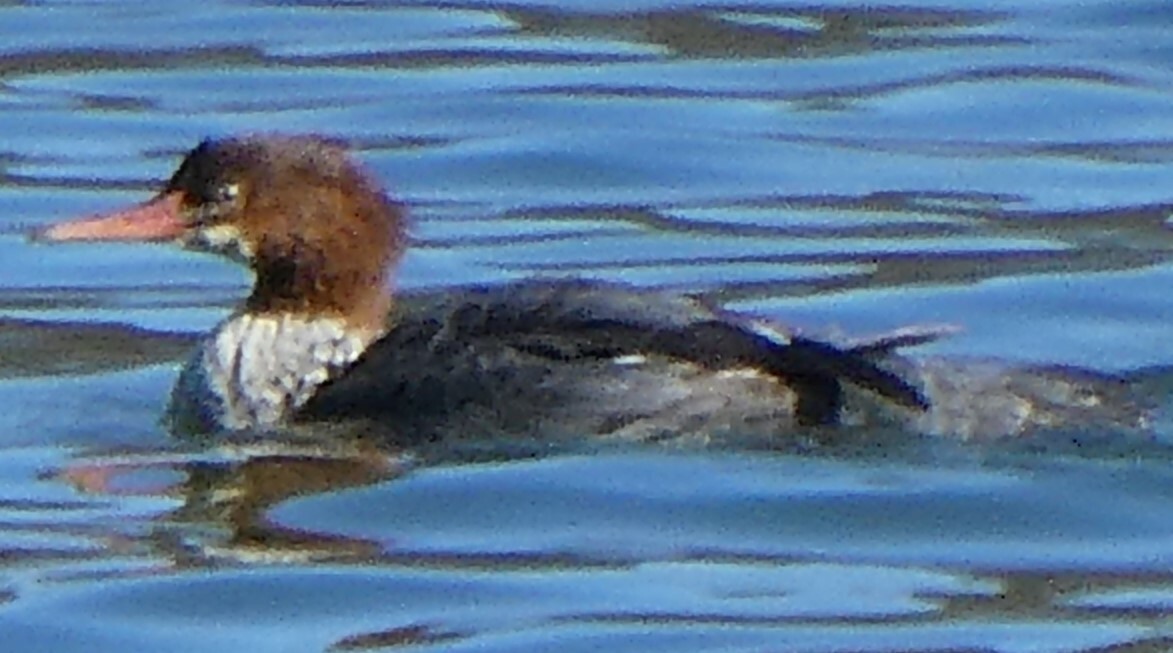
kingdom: Animalia
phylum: Chordata
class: Aves
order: Anseriformes
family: Anatidae
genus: Mergus
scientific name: Mergus merganser
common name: Common merganser
